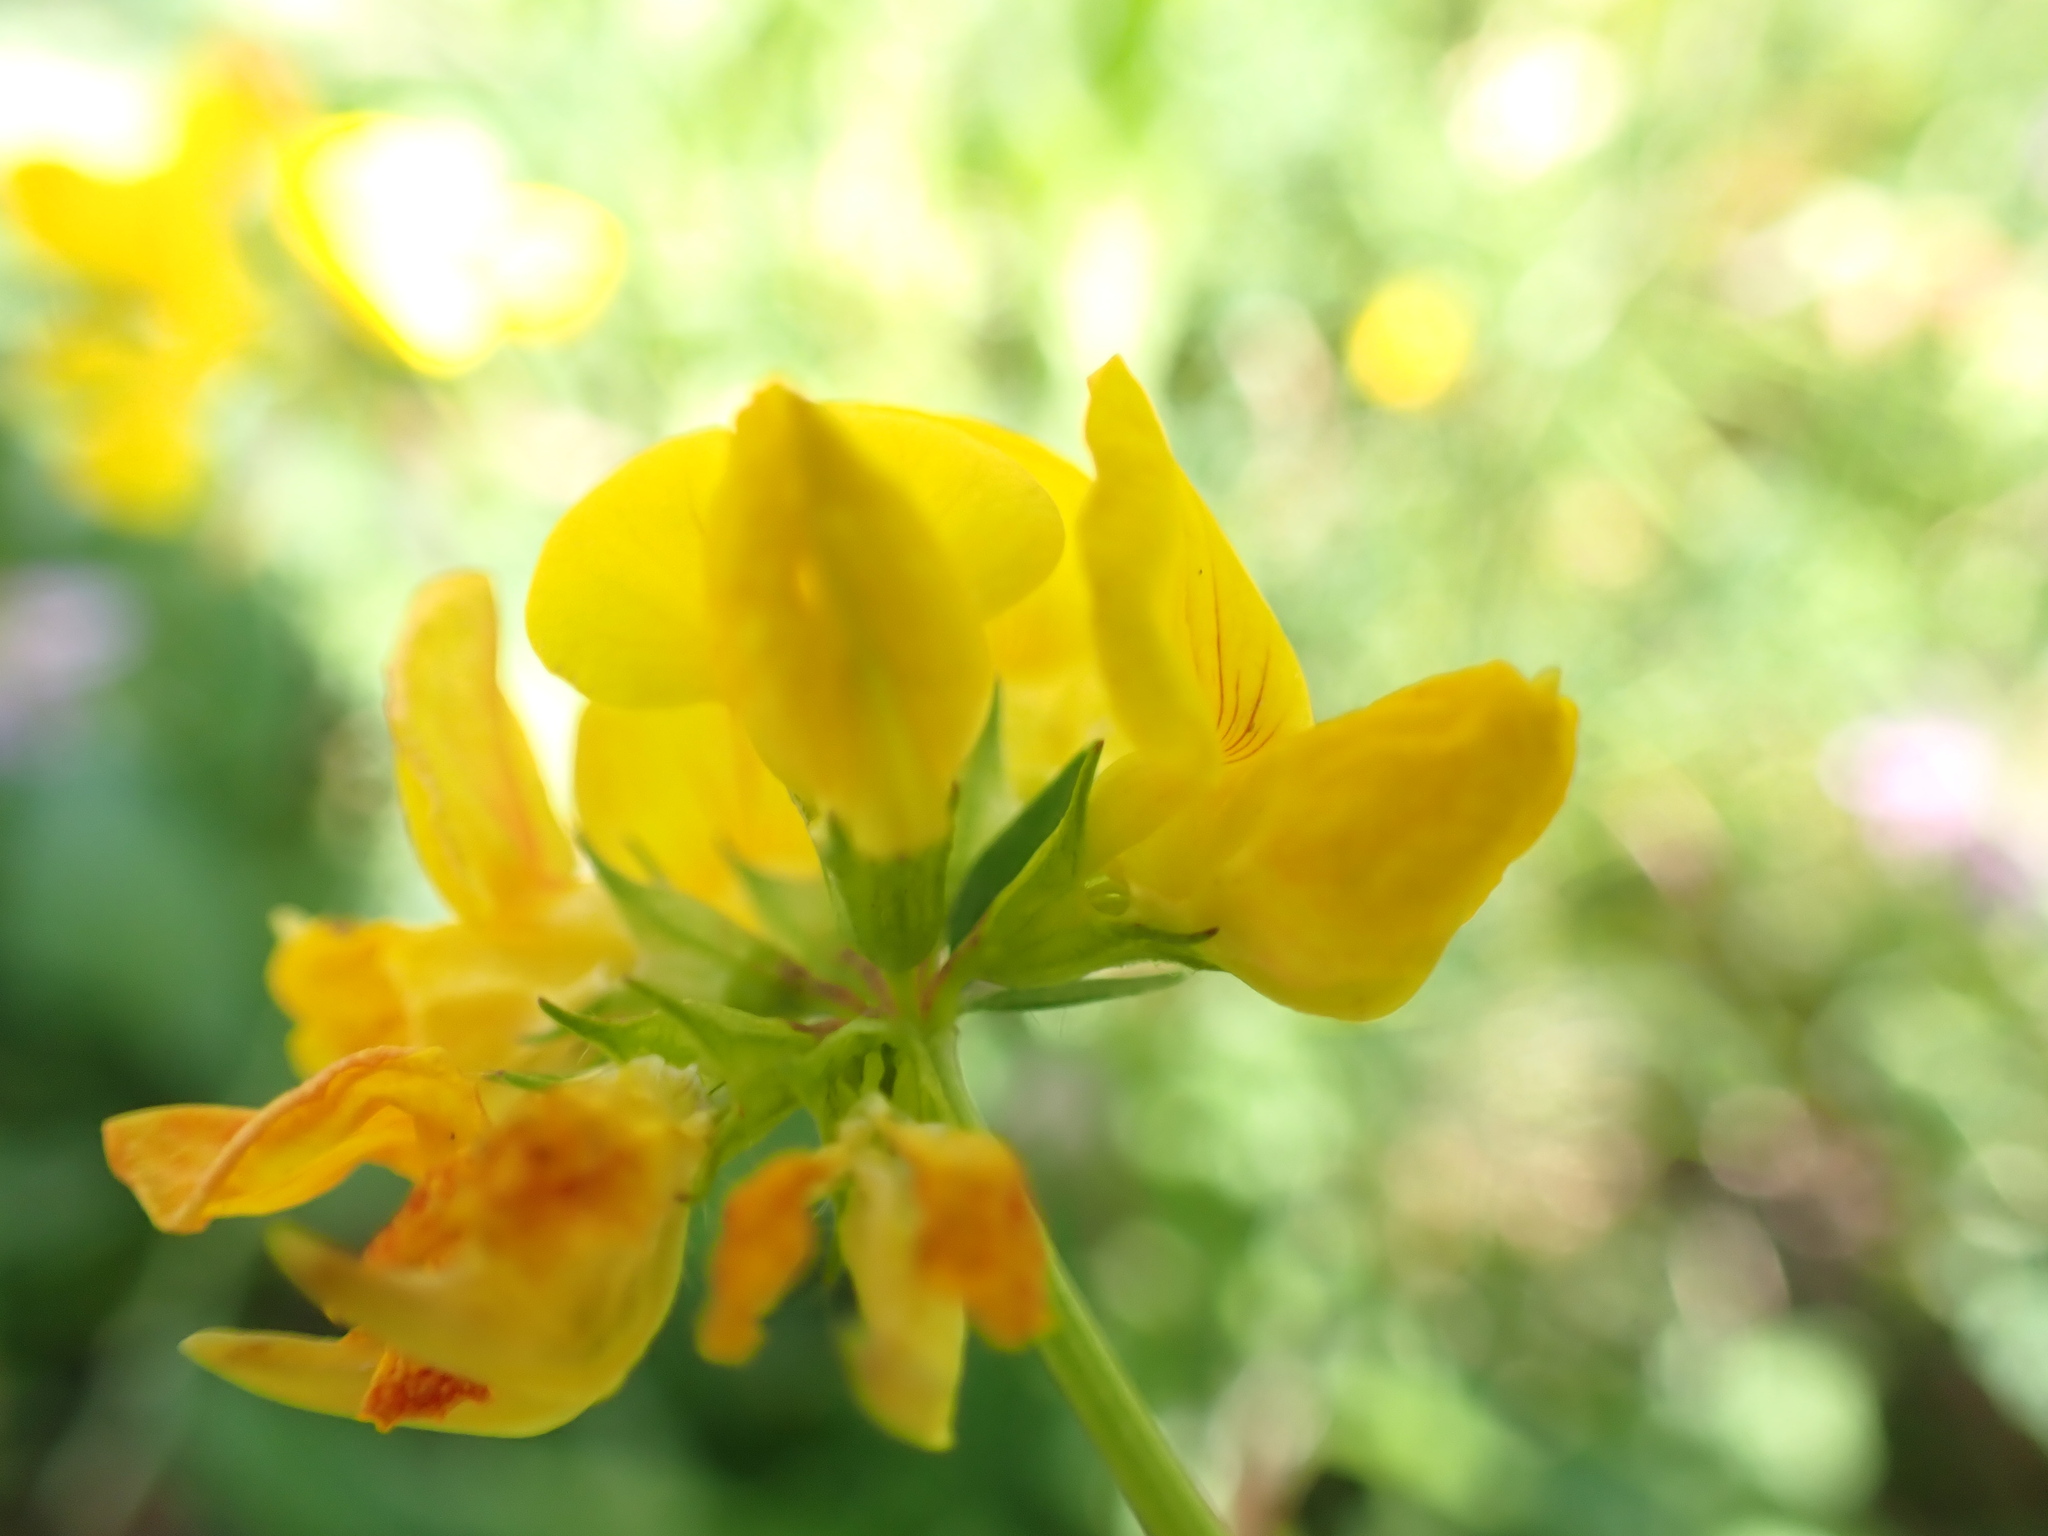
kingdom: Plantae
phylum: Tracheophyta
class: Magnoliopsida
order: Fabales
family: Fabaceae
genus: Lotus
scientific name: Lotus corniculatus
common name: Common bird's-foot-trefoil
